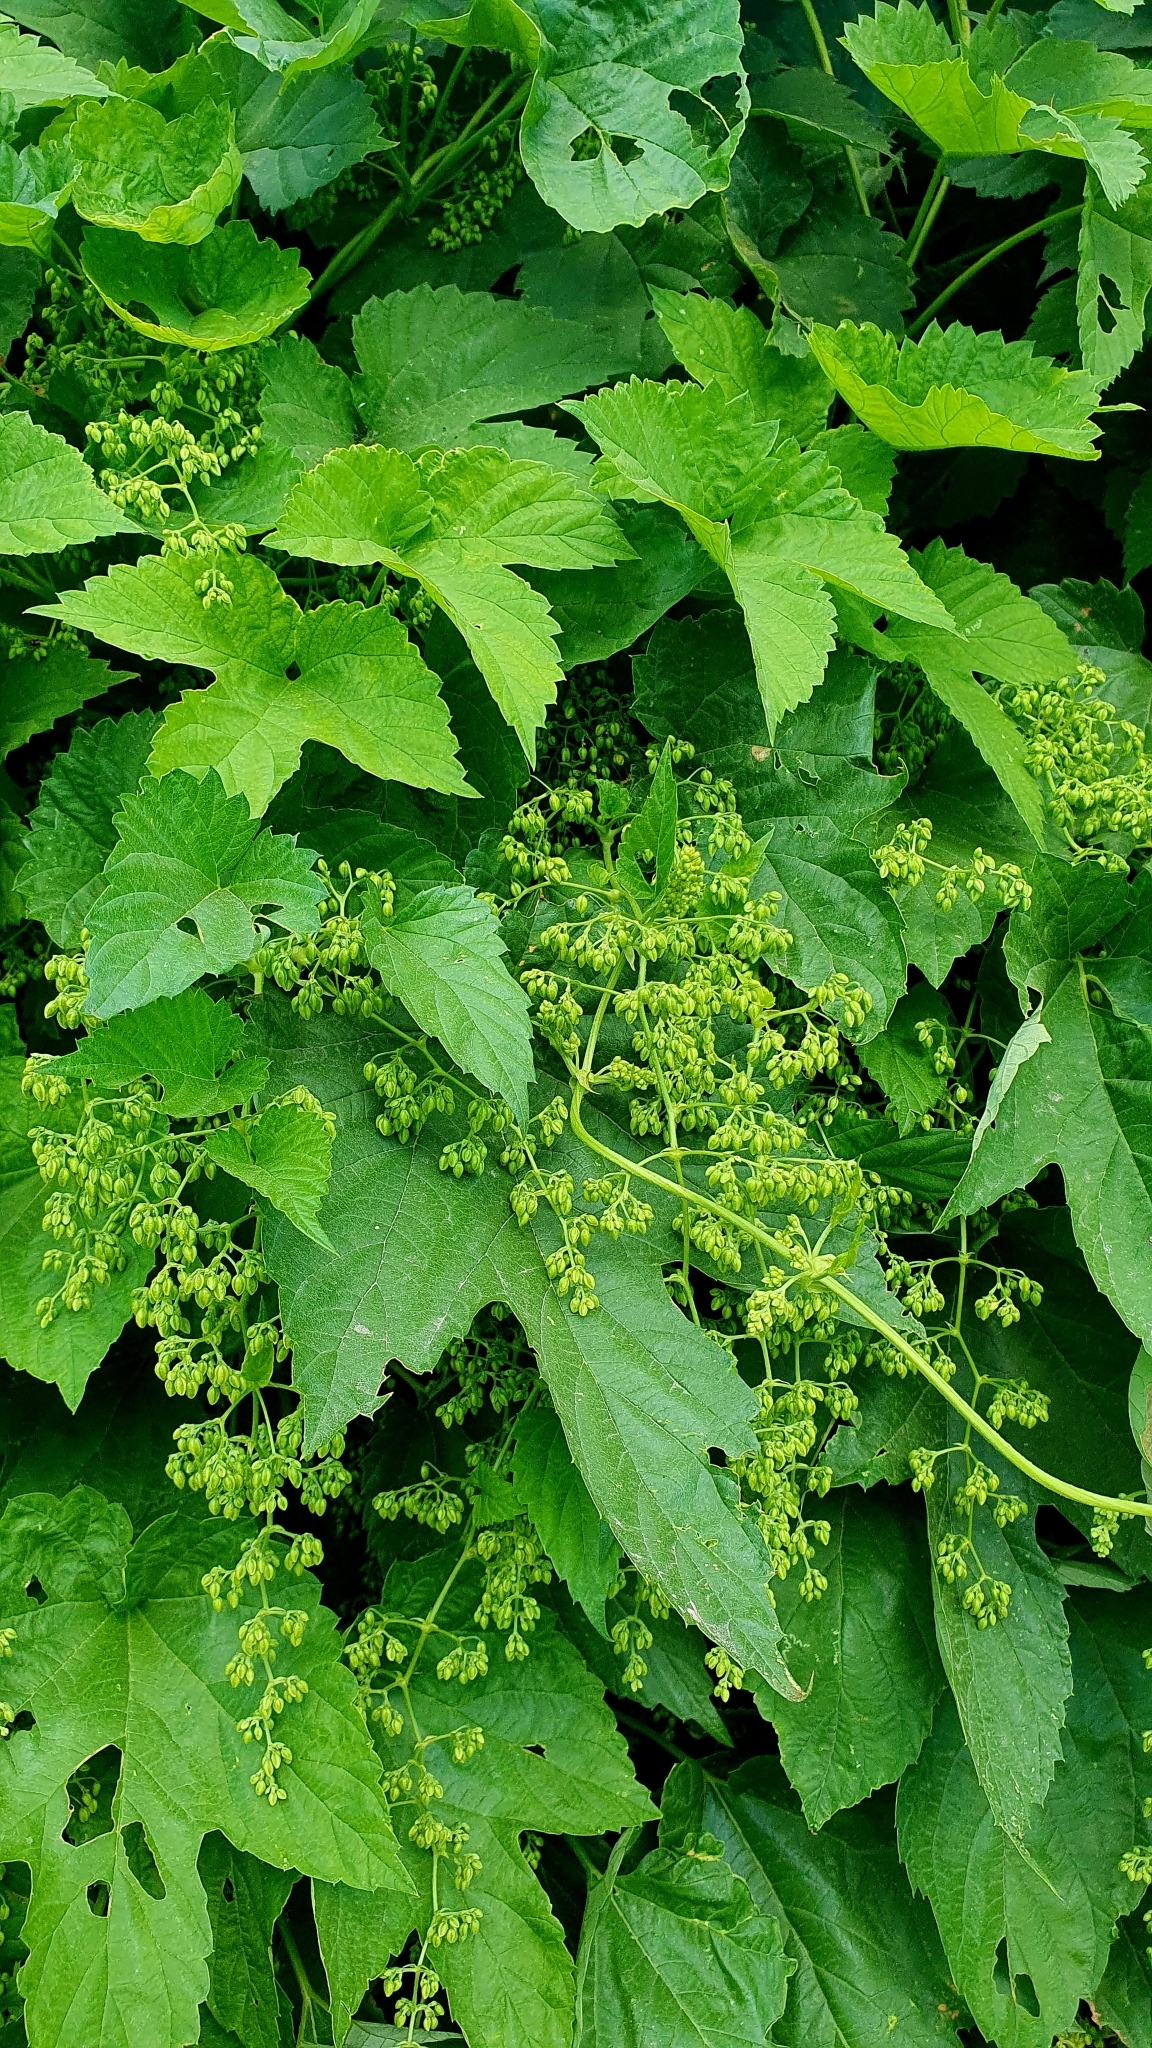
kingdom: Plantae
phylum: Tracheophyta
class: Magnoliopsida
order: Rosales
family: Cannabaceae
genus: Humulus
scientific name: Humulus lupulus
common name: Hop
